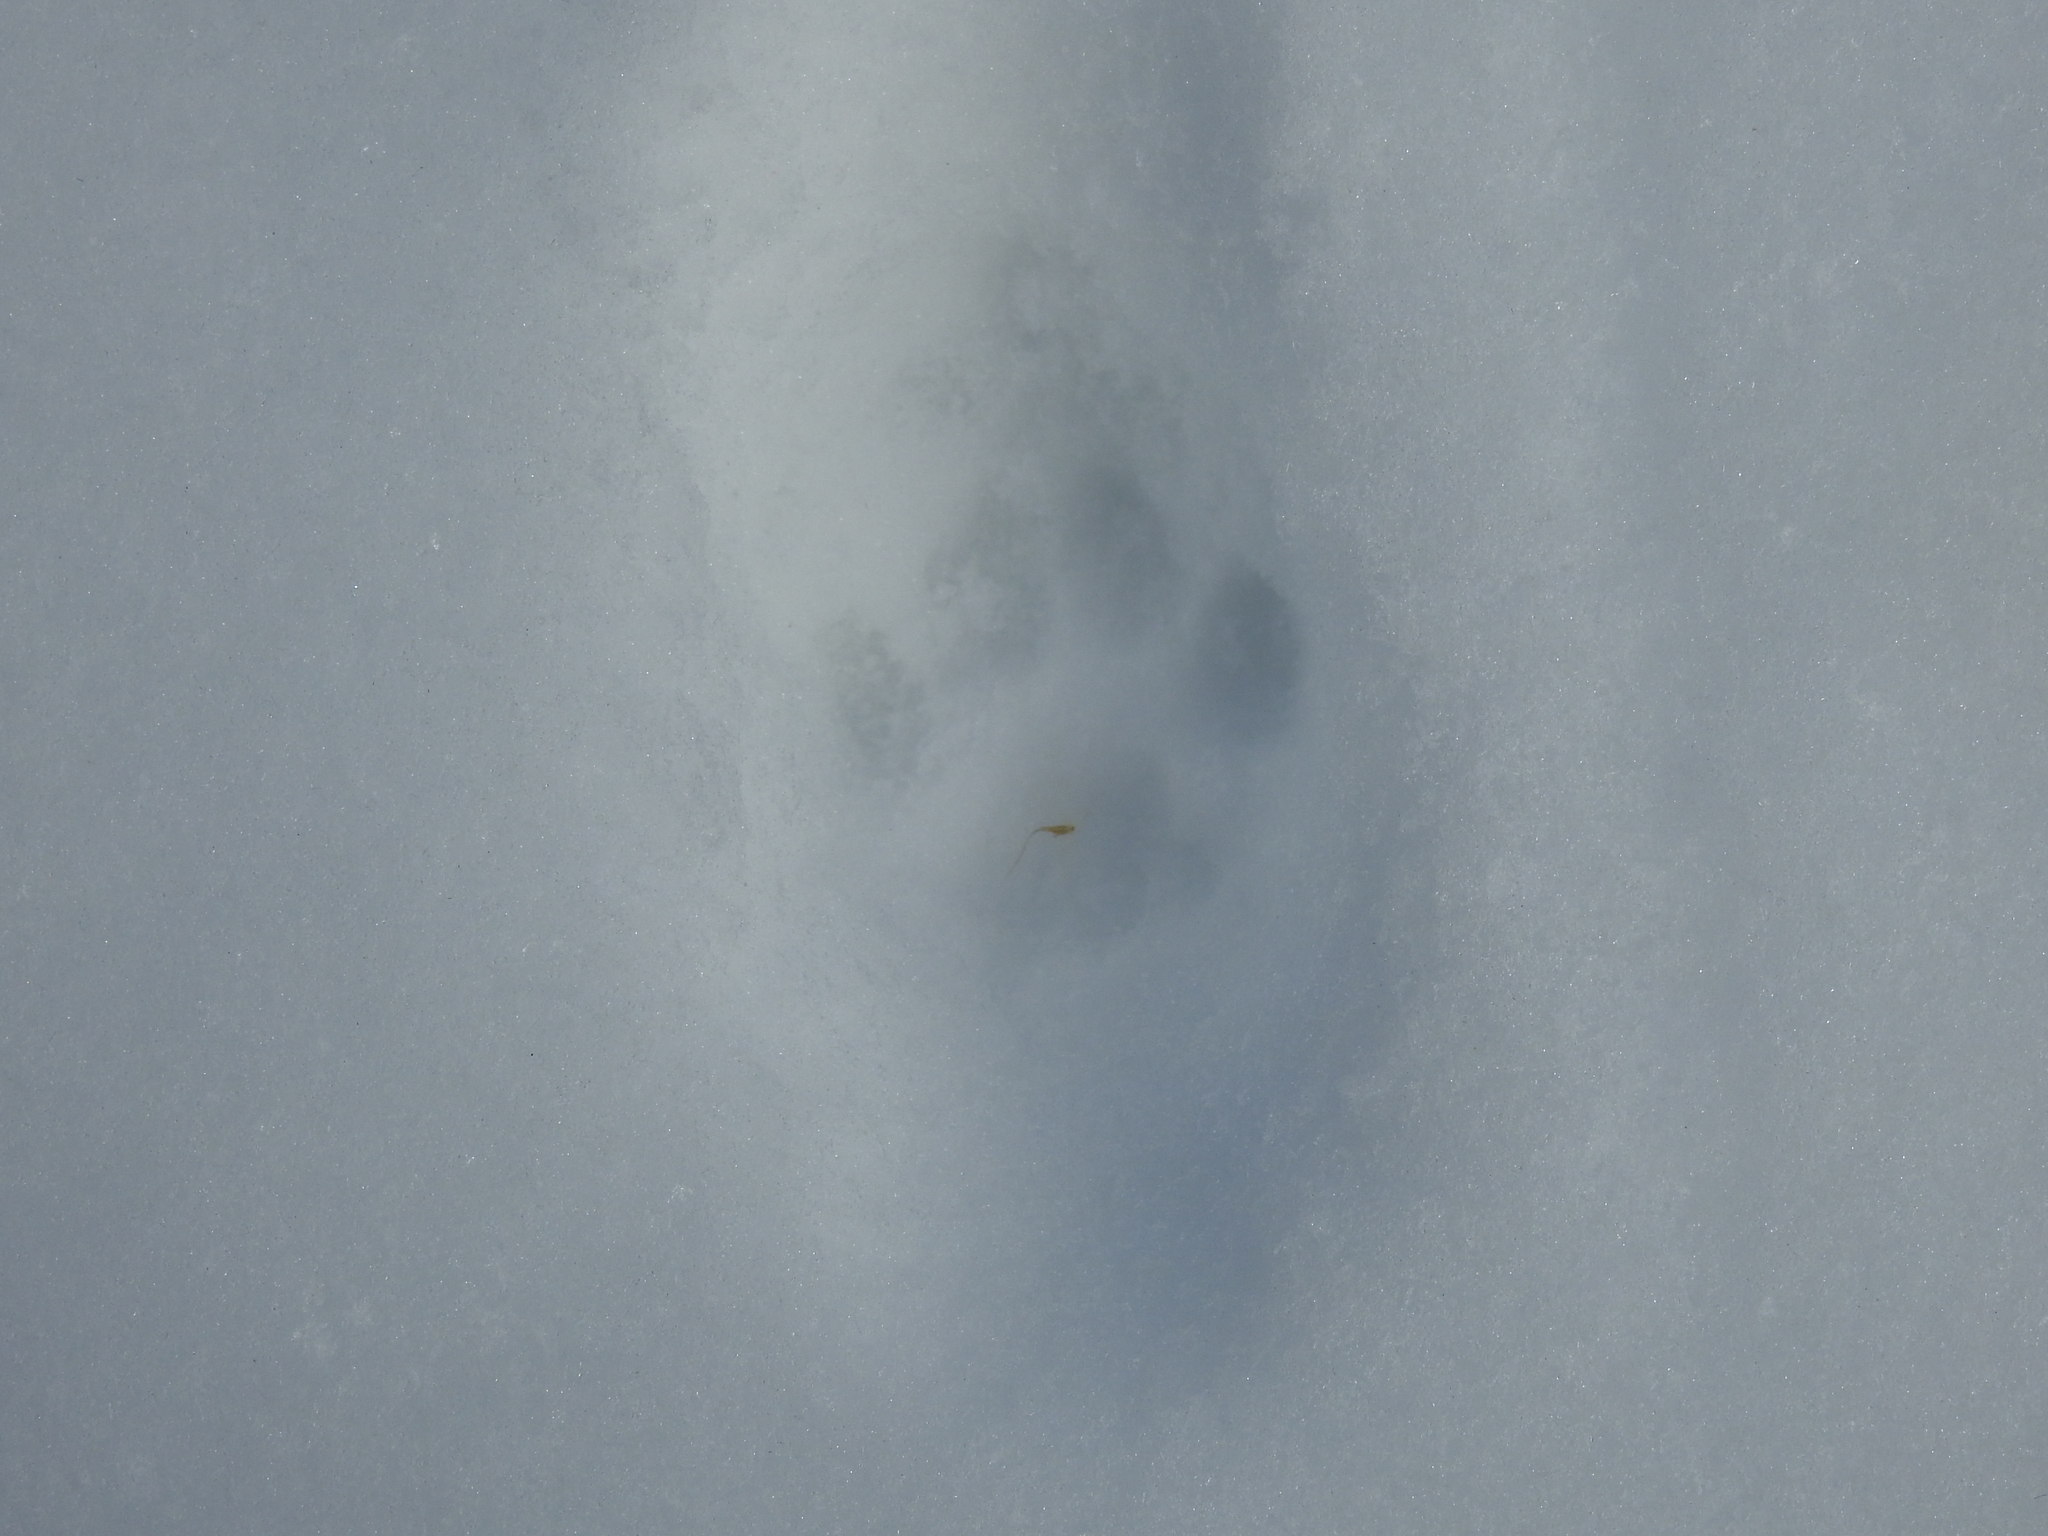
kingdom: Animalia
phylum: Chordata
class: Mammalia
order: Carnivora
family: Felidae
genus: Felis
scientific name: Felis catus
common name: Domestic cat
